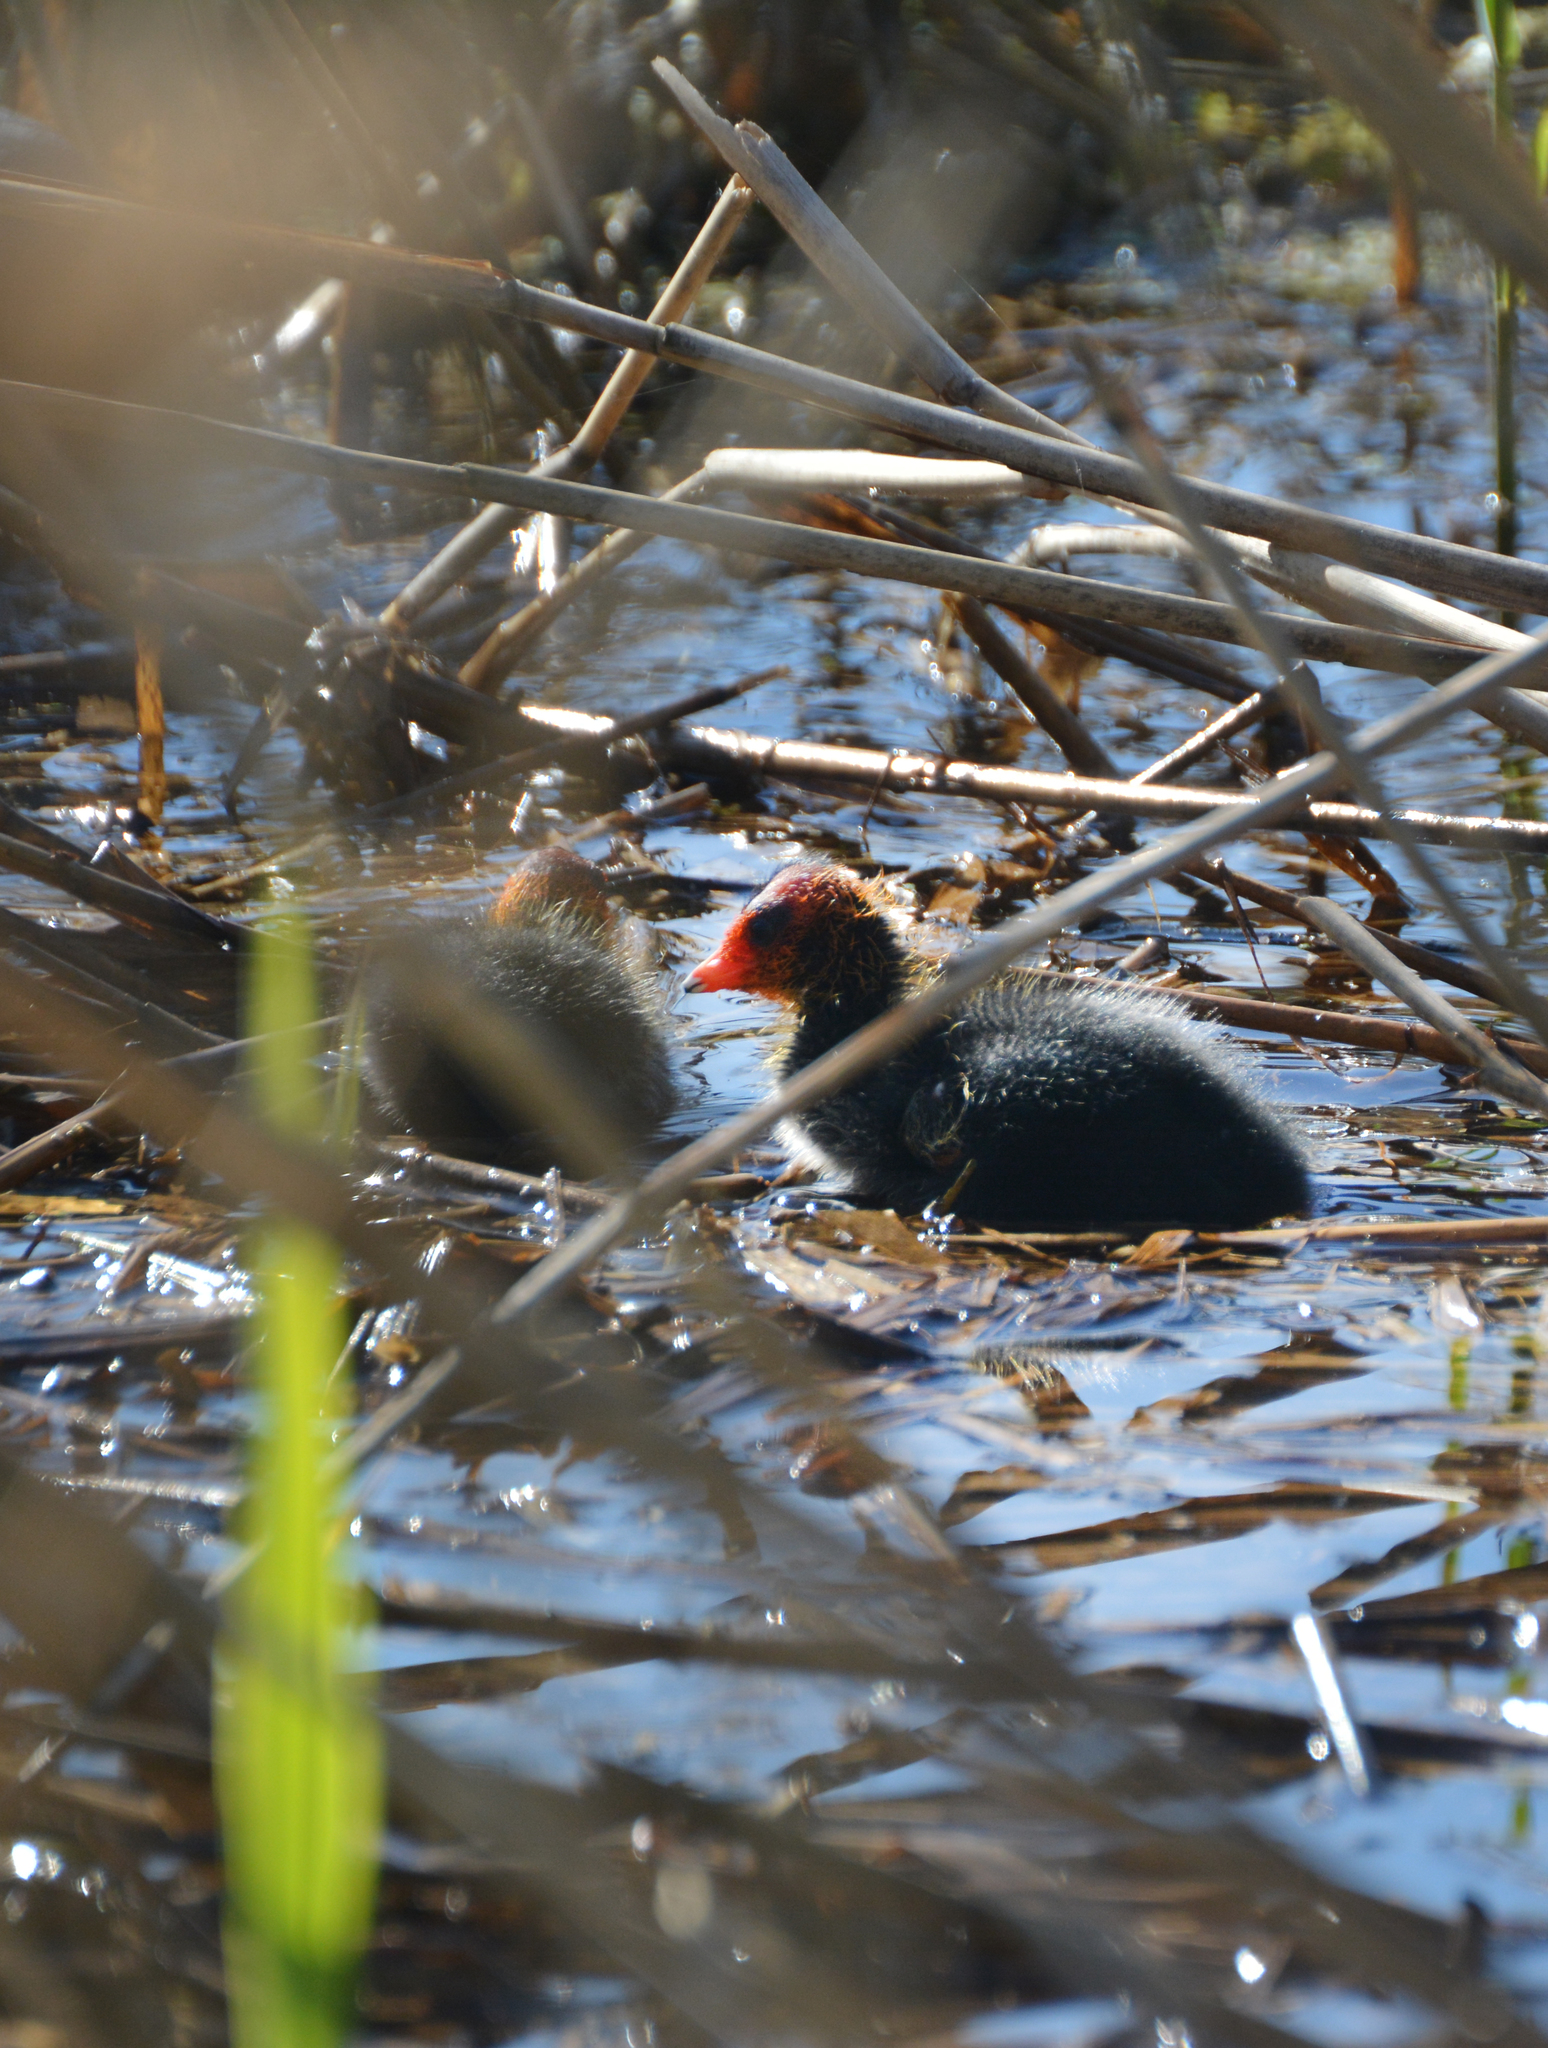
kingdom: Animalia
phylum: Chordata
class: Aves
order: Gruiformes
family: Rallidae
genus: Fulica
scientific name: Fulica atra
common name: Eurasian coot
